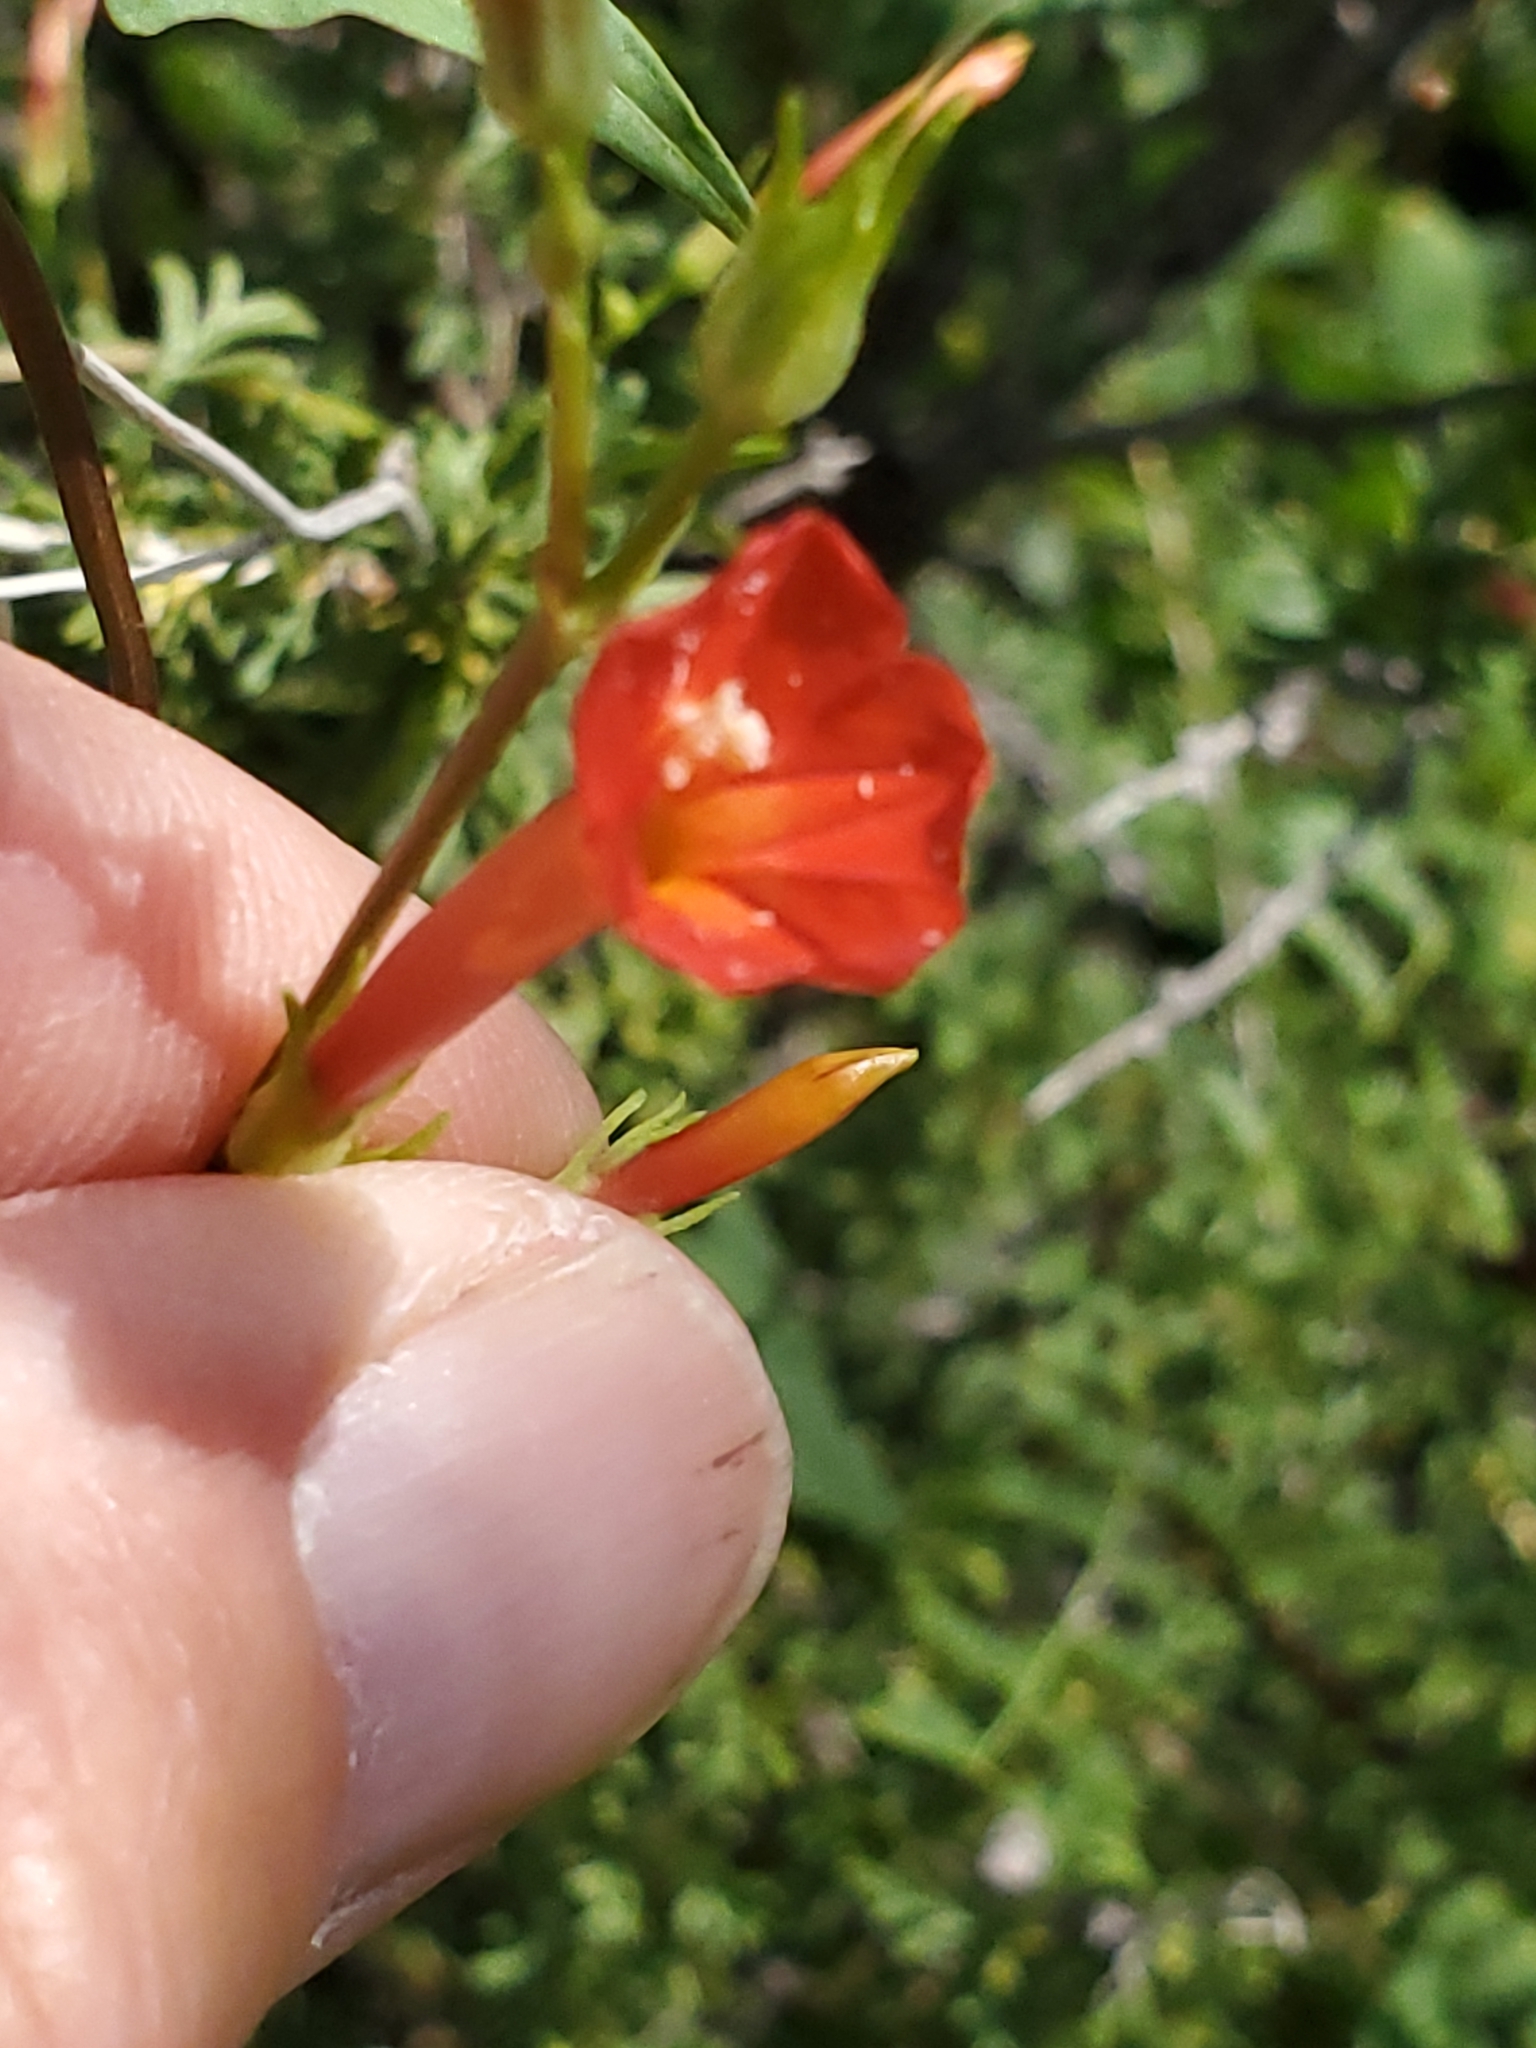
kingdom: Plantae
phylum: Tracheophyta
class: Magnoliopsida
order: Solanales
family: Convolvulaceae
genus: Ipomoea
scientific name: Ipomoea cristulata
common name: Trans-pecos morning-glory
